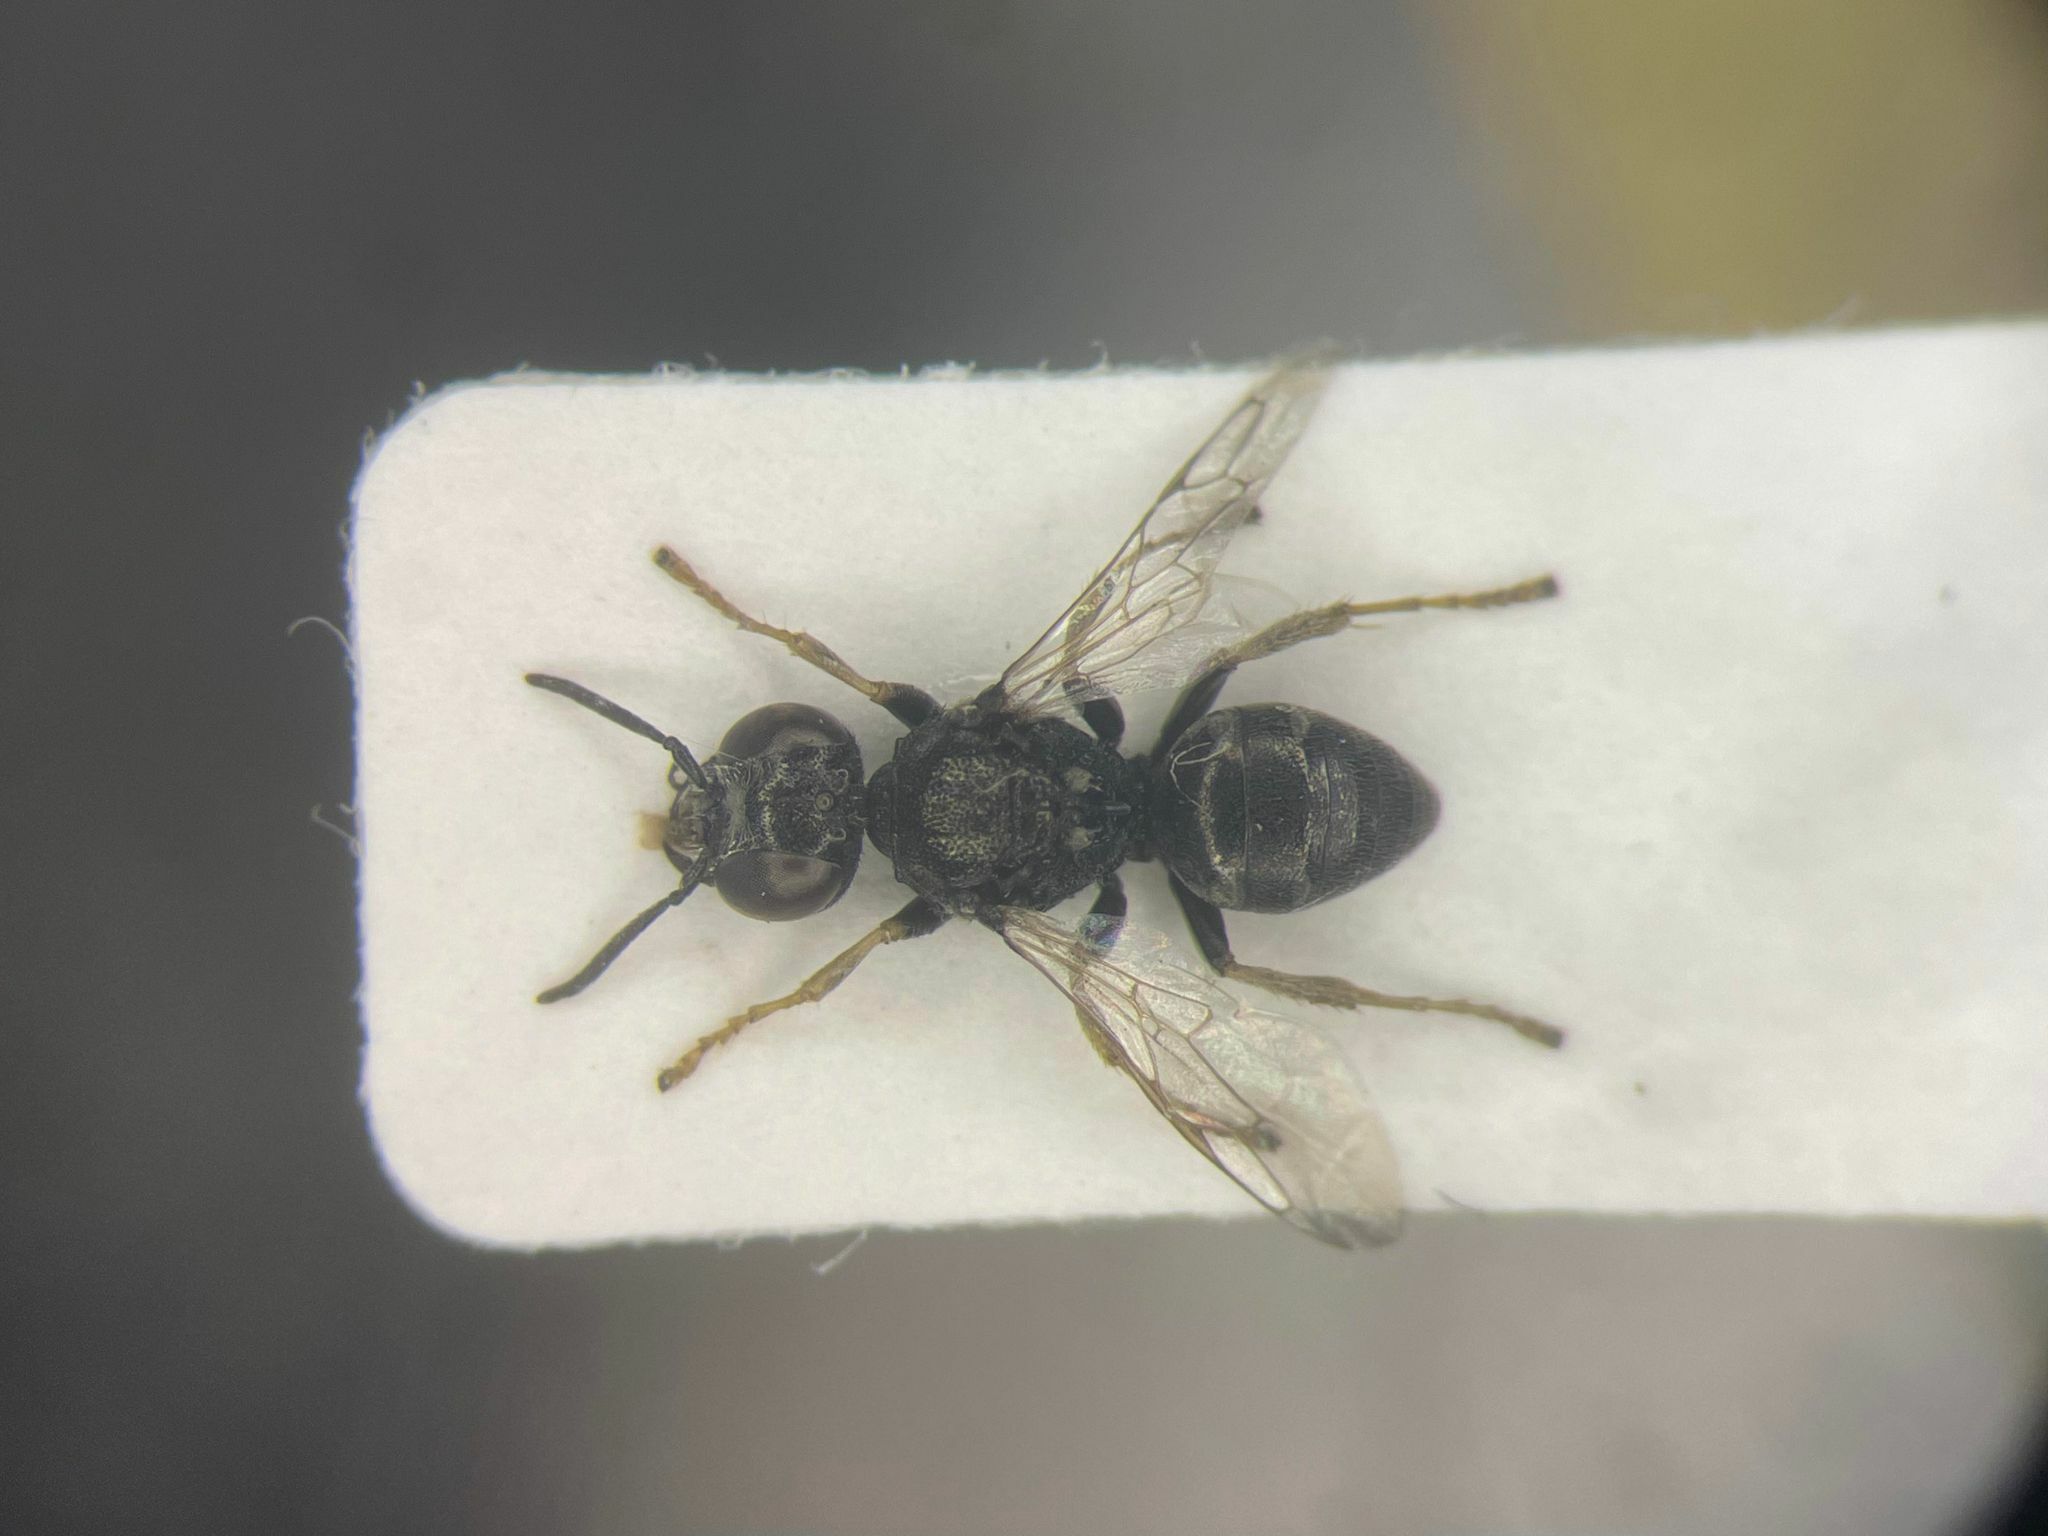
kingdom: Animalia
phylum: Arthropoda
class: Insecta
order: Hymenoptera
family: Crabronidae
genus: Oxybelus
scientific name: Oxybelus bipunctatus
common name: Square-headed wasp
